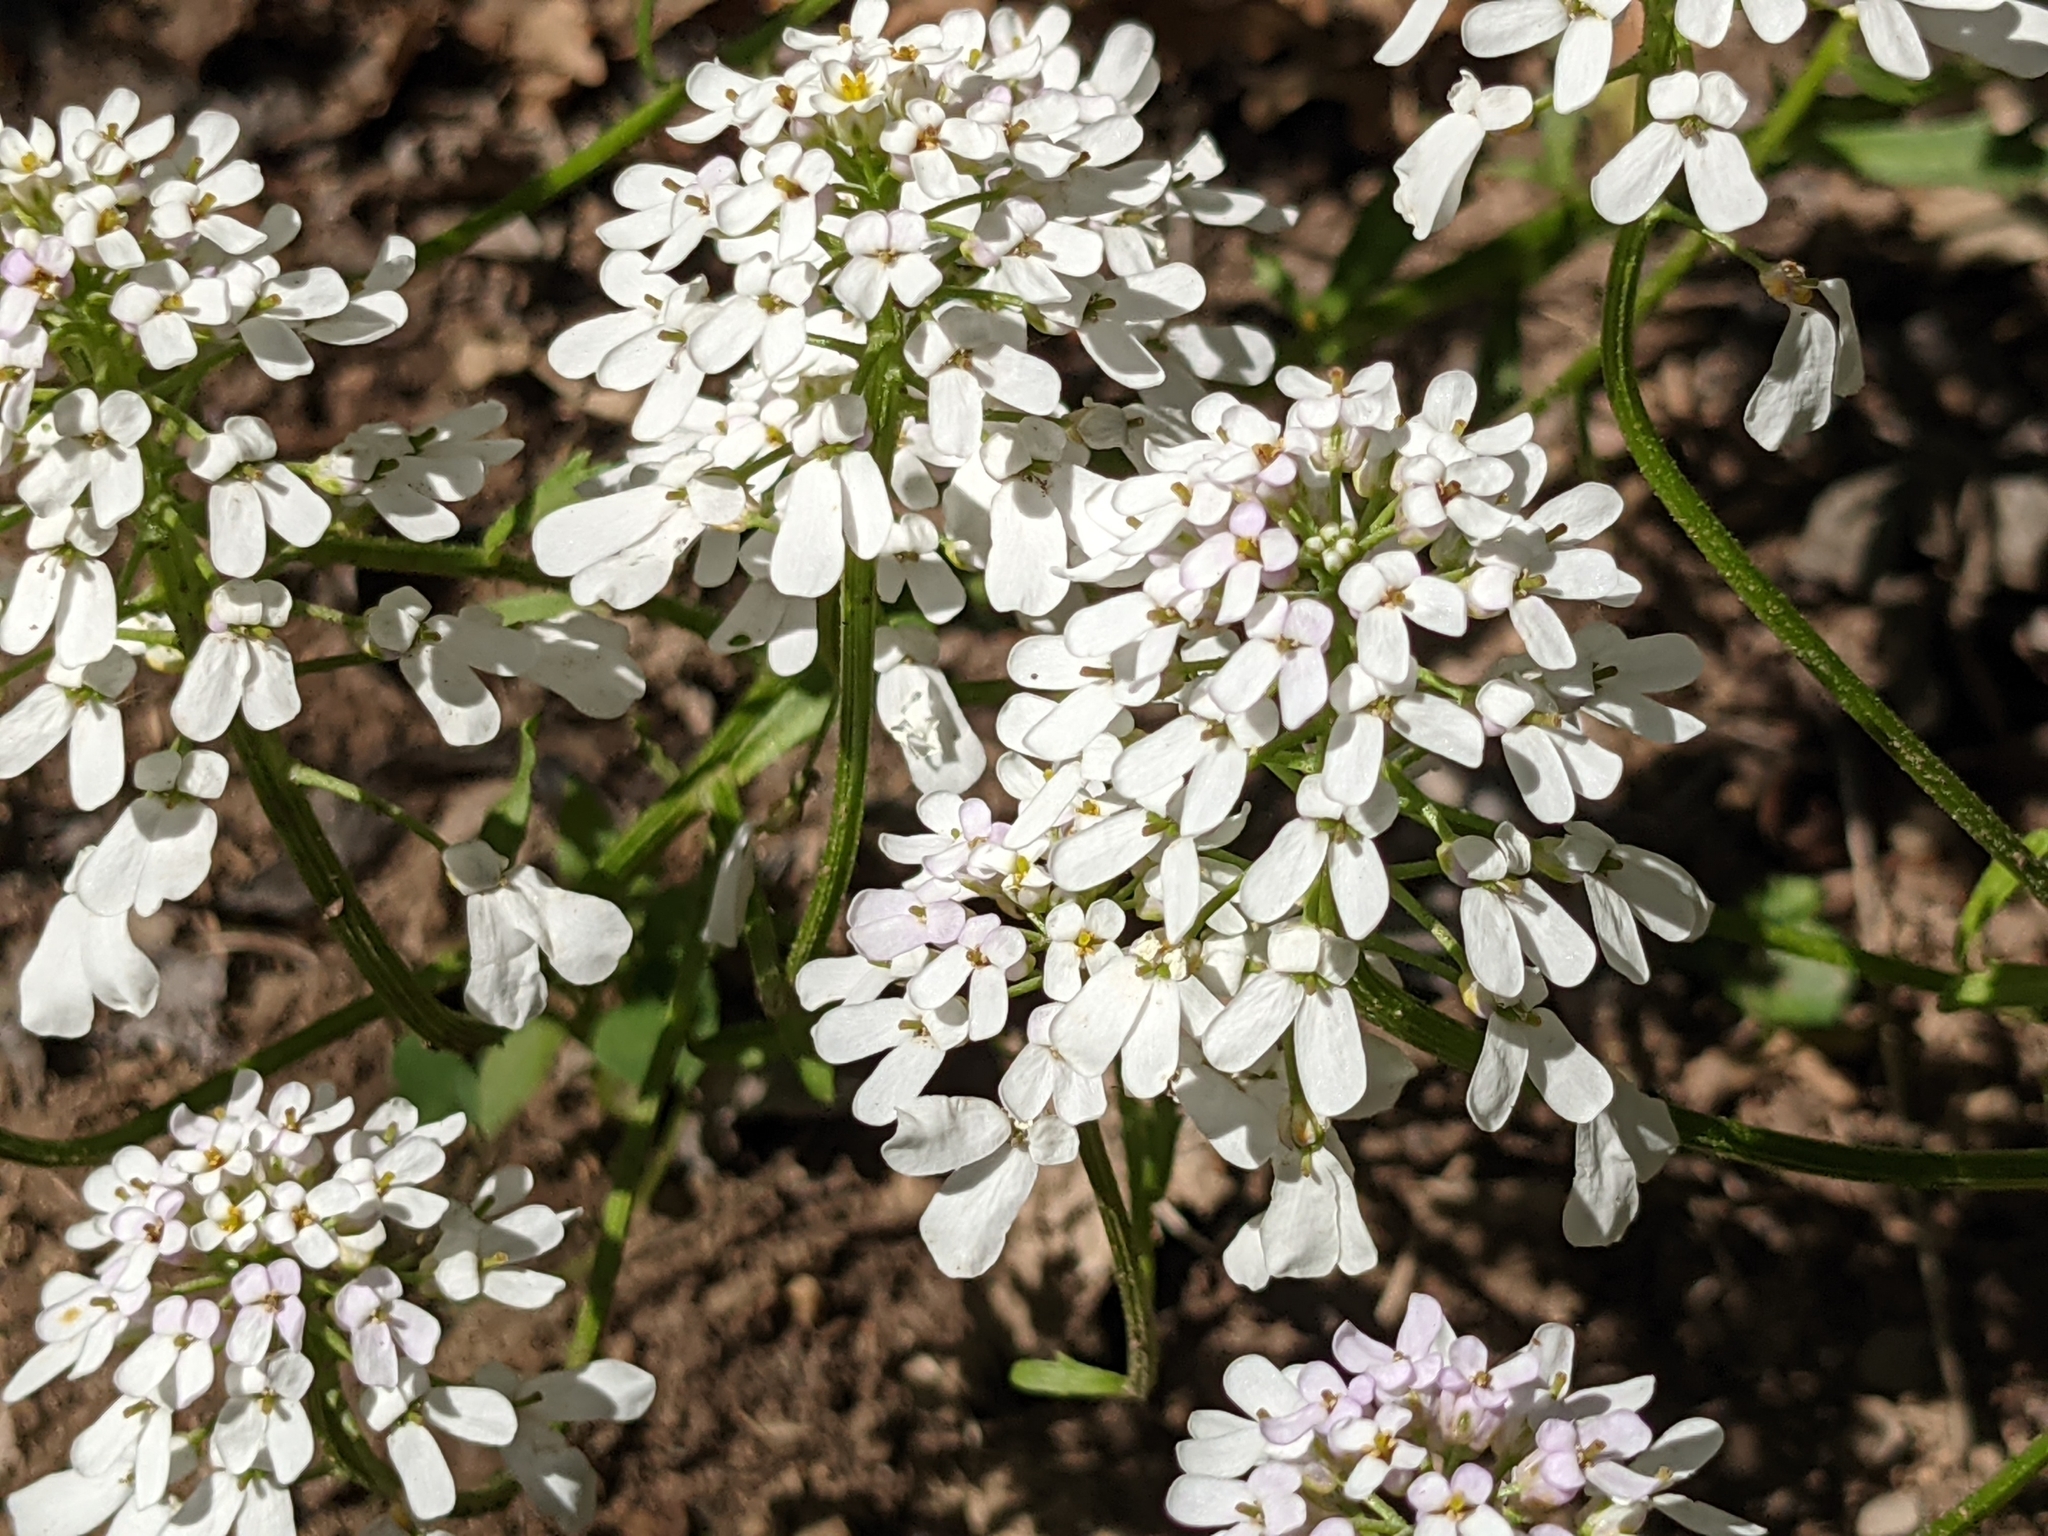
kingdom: Plantae
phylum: Tracheophyta
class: Magnoliopsida
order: Brassicales
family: Brassicaceae
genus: Iberis
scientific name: Iberis sempervirens
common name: Evergreen candytuft
